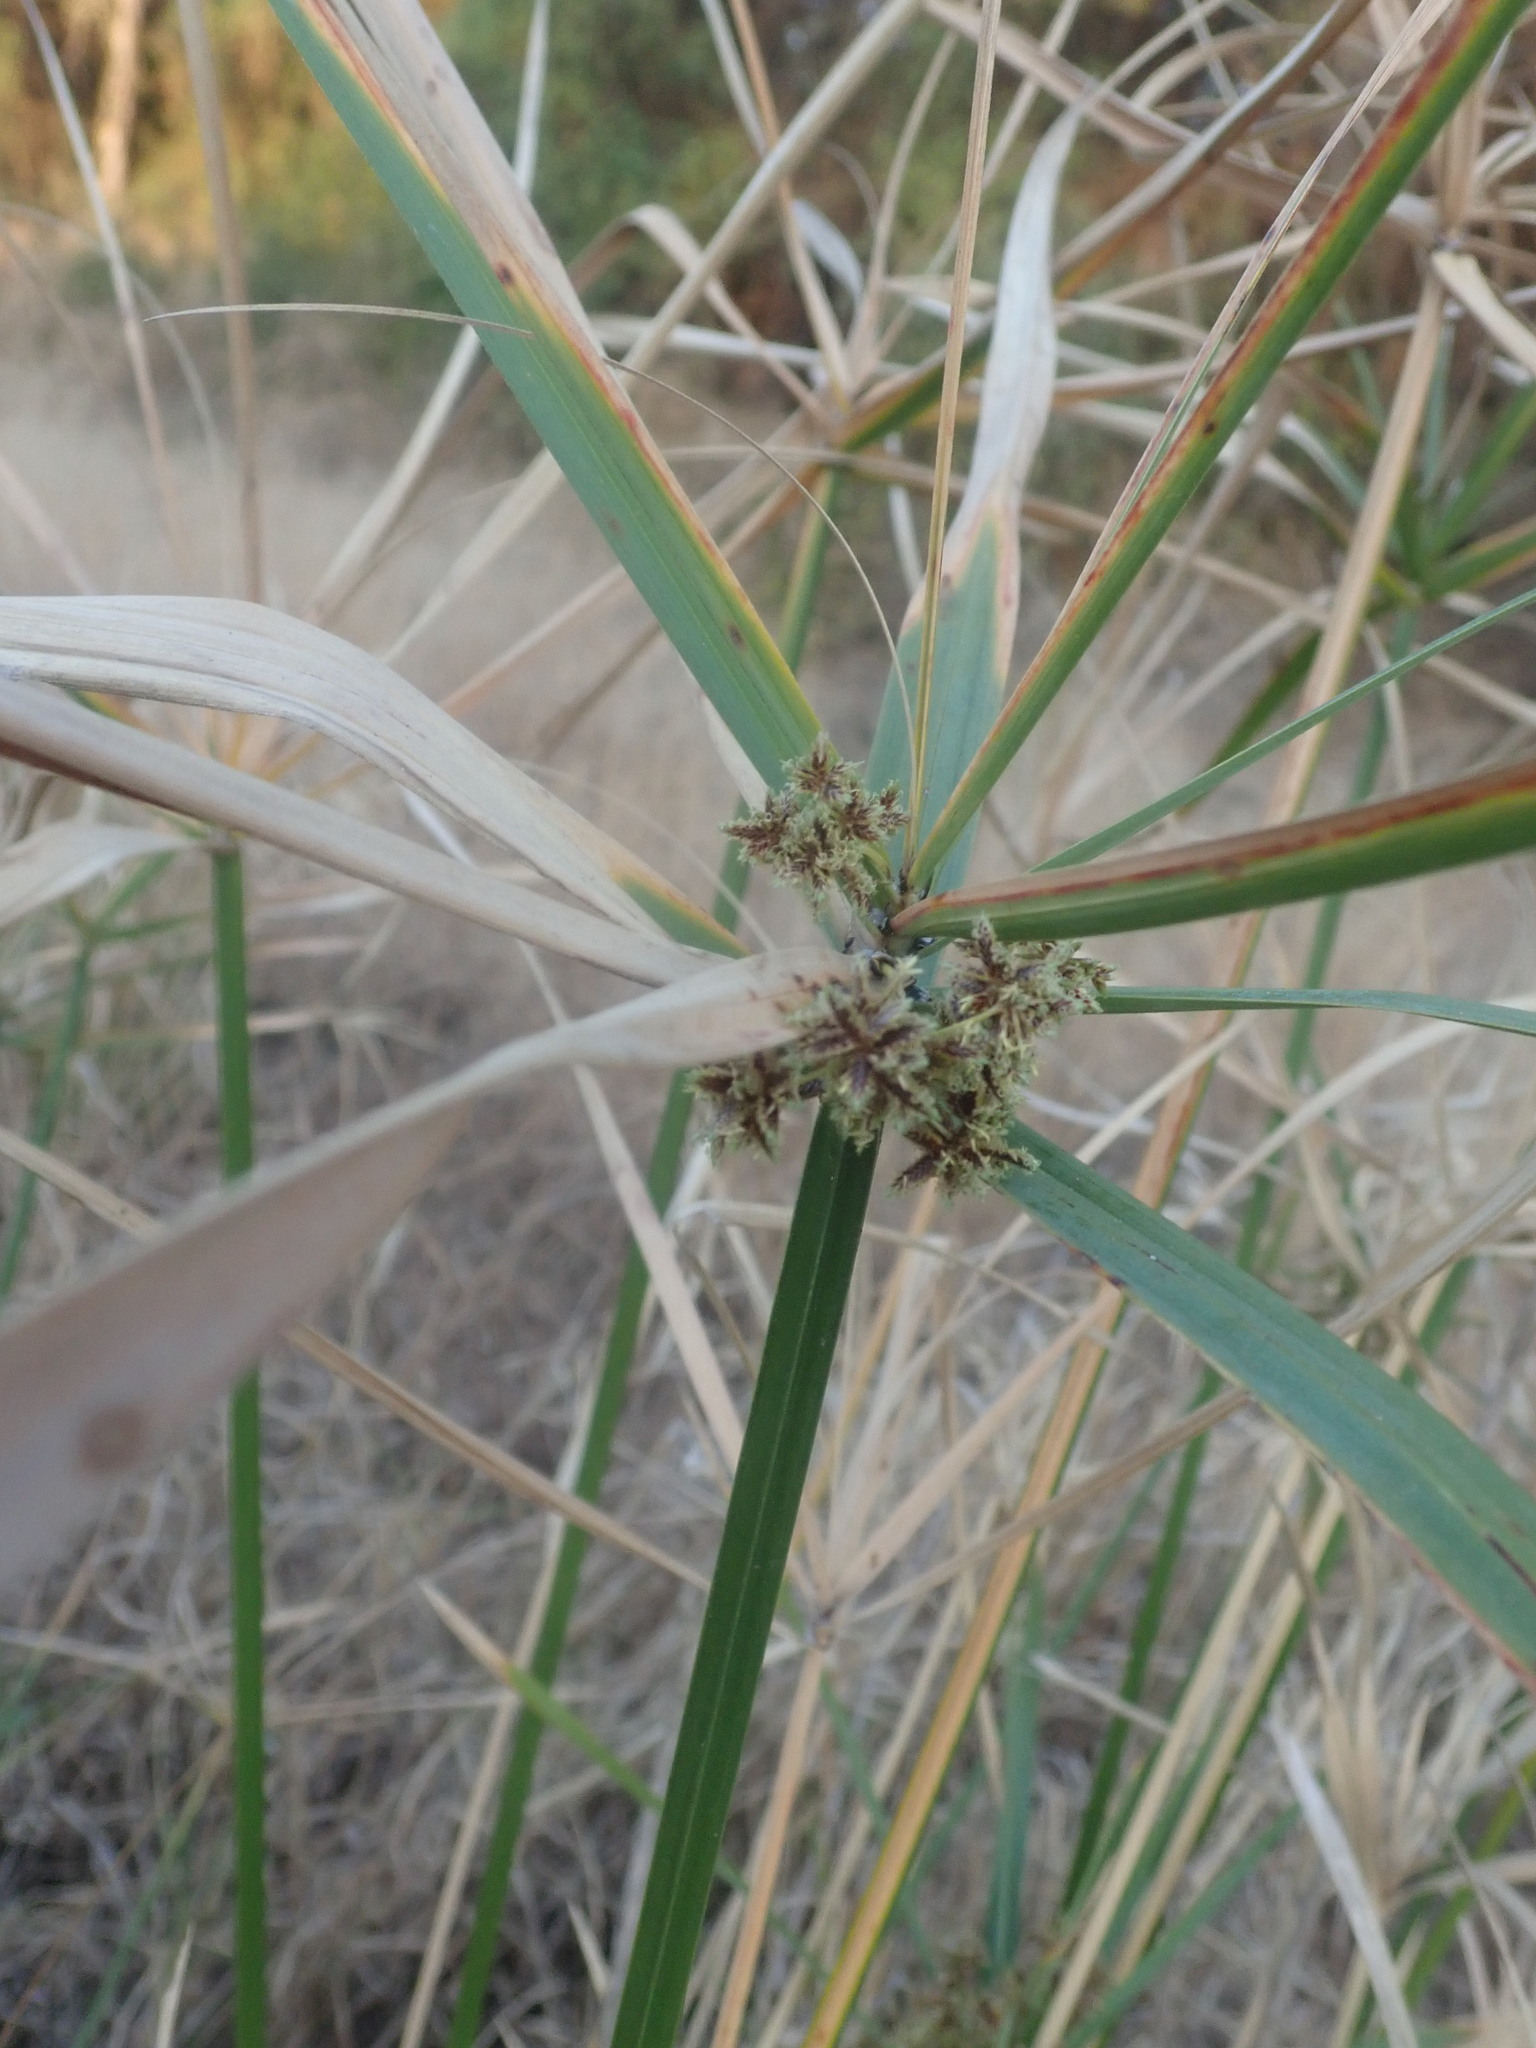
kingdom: Plantae
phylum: Tracheophyta
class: Liliopsida
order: Poales
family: Cyperaceae
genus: Cyperus
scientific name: Cyperus sexangularis
